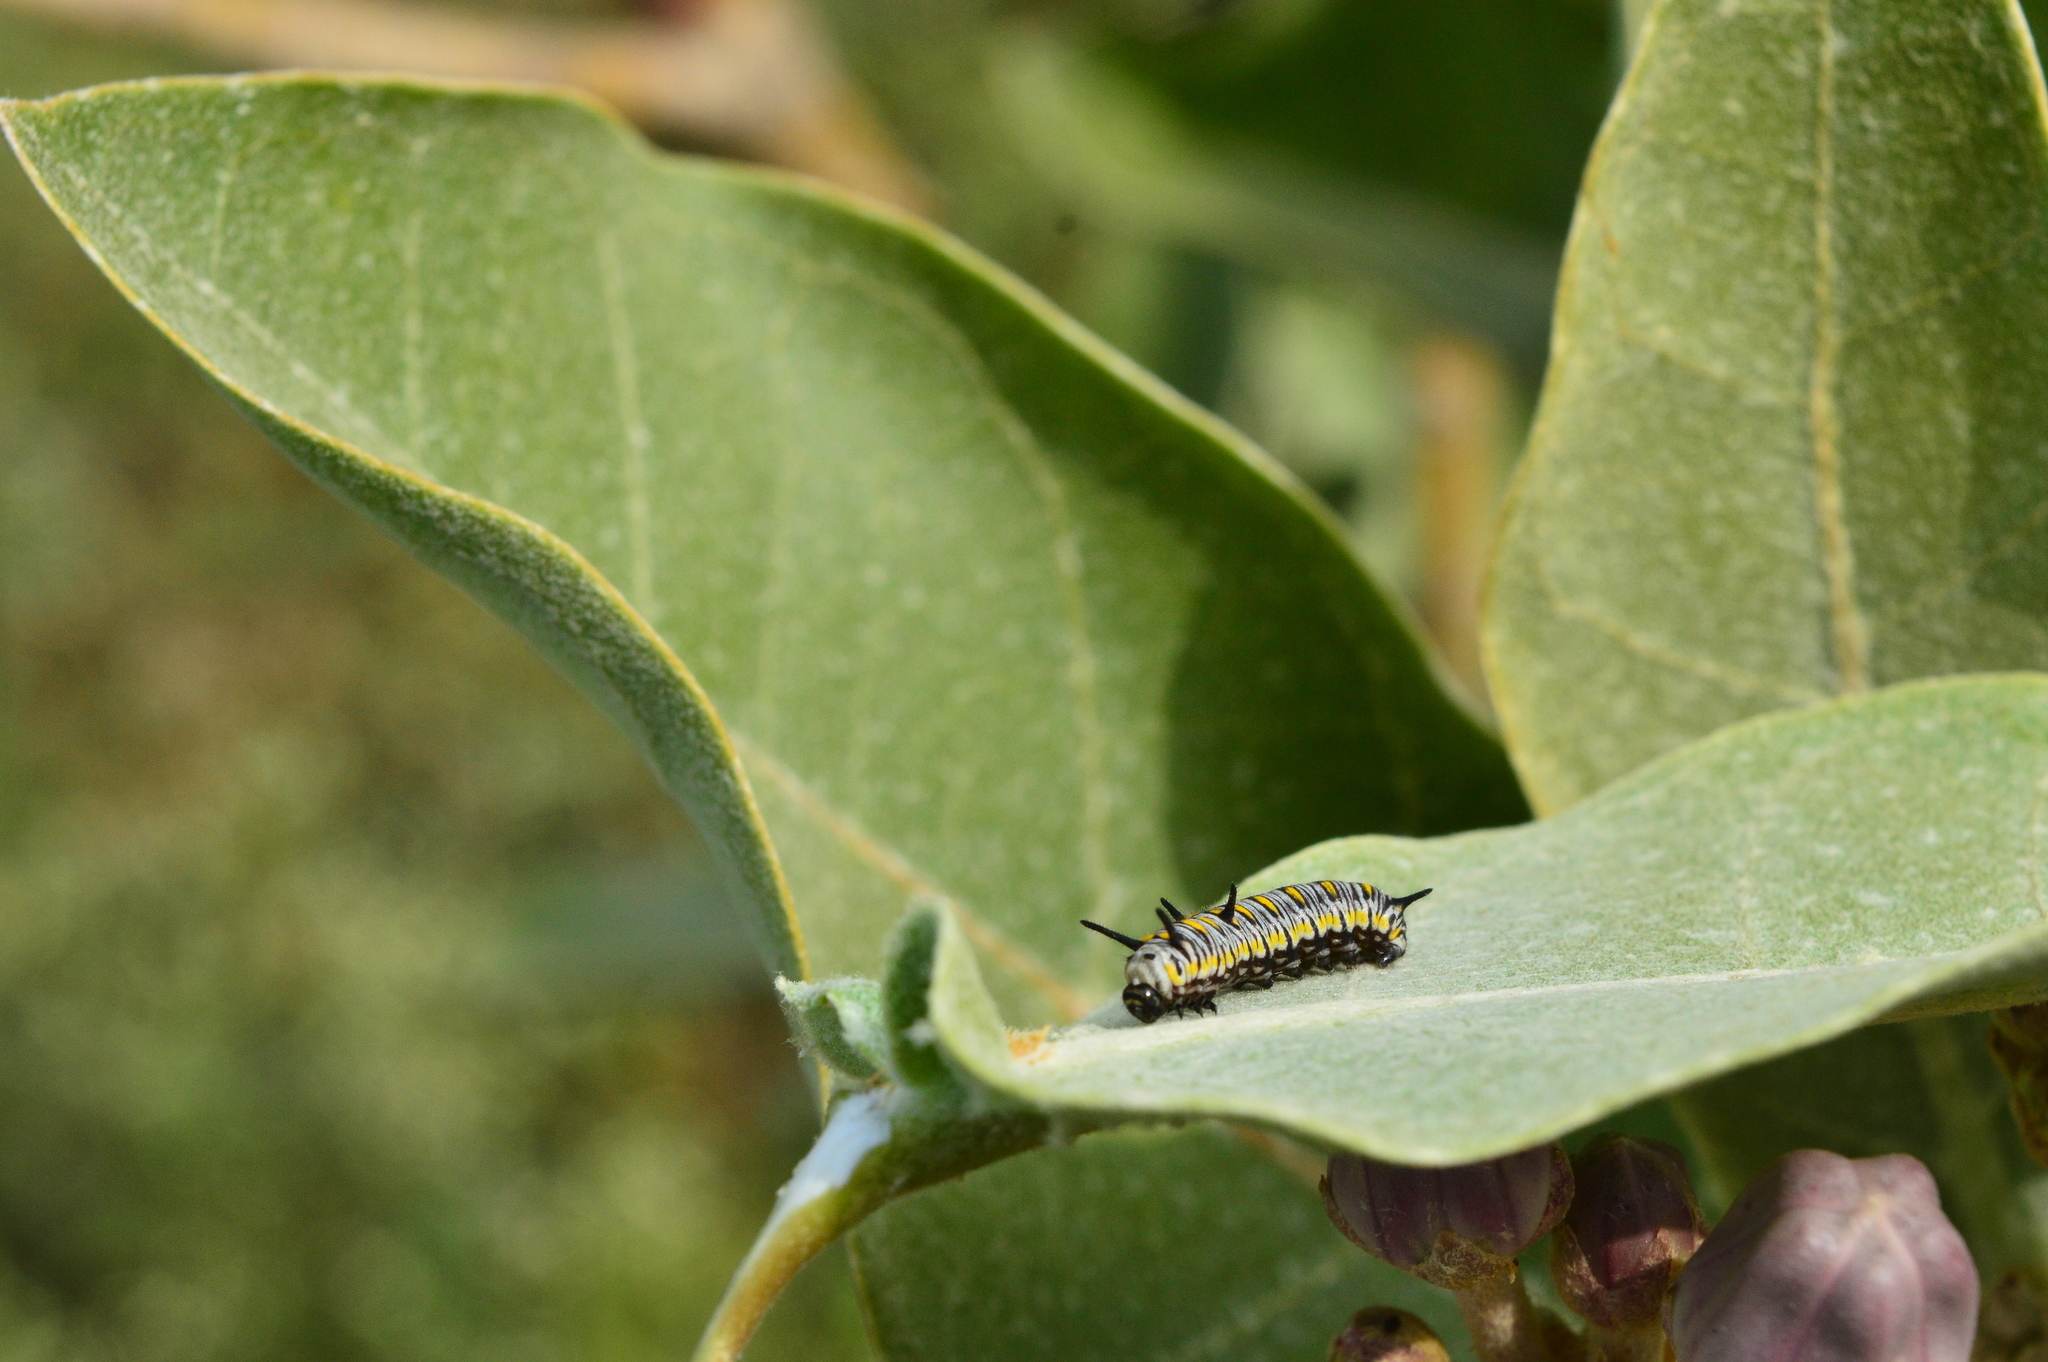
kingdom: Animalia
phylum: Arthropoda
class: Insecta
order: Lepidoptera
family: Nymphalidae
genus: Danaus
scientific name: Danaus chrysippus
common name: Plain tiger
